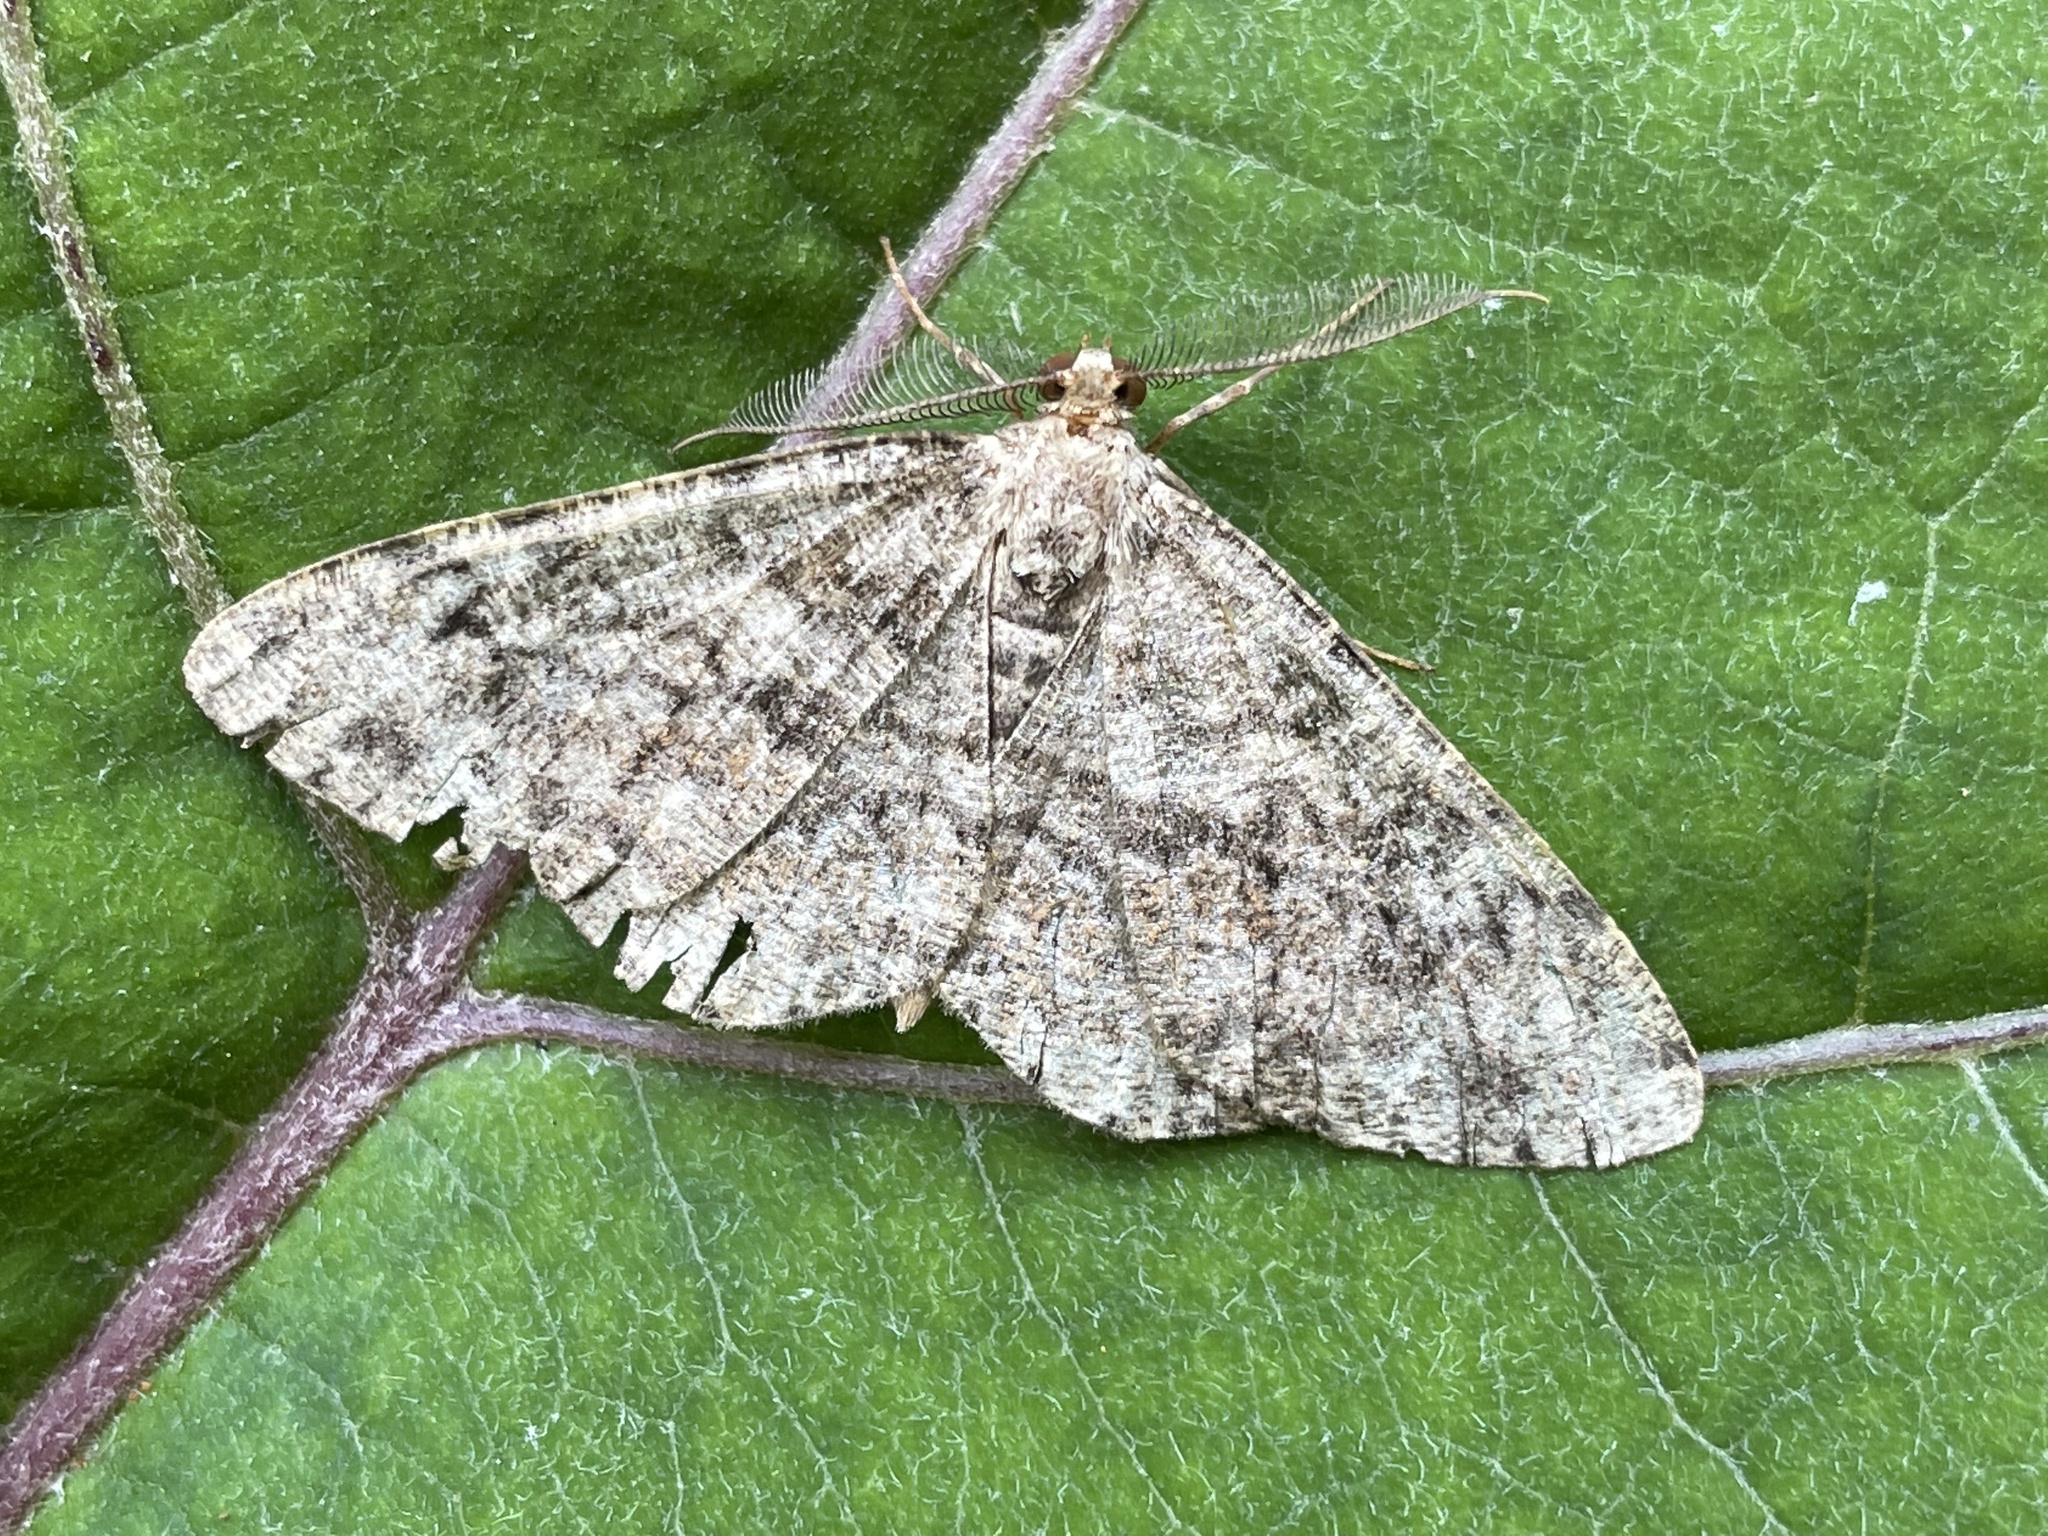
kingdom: Animalia
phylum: Arthropoda
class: Insecta
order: Lepidoptera
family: Geometridae
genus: Deileptenia
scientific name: Deileptenia ribeata
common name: Satin beauty
